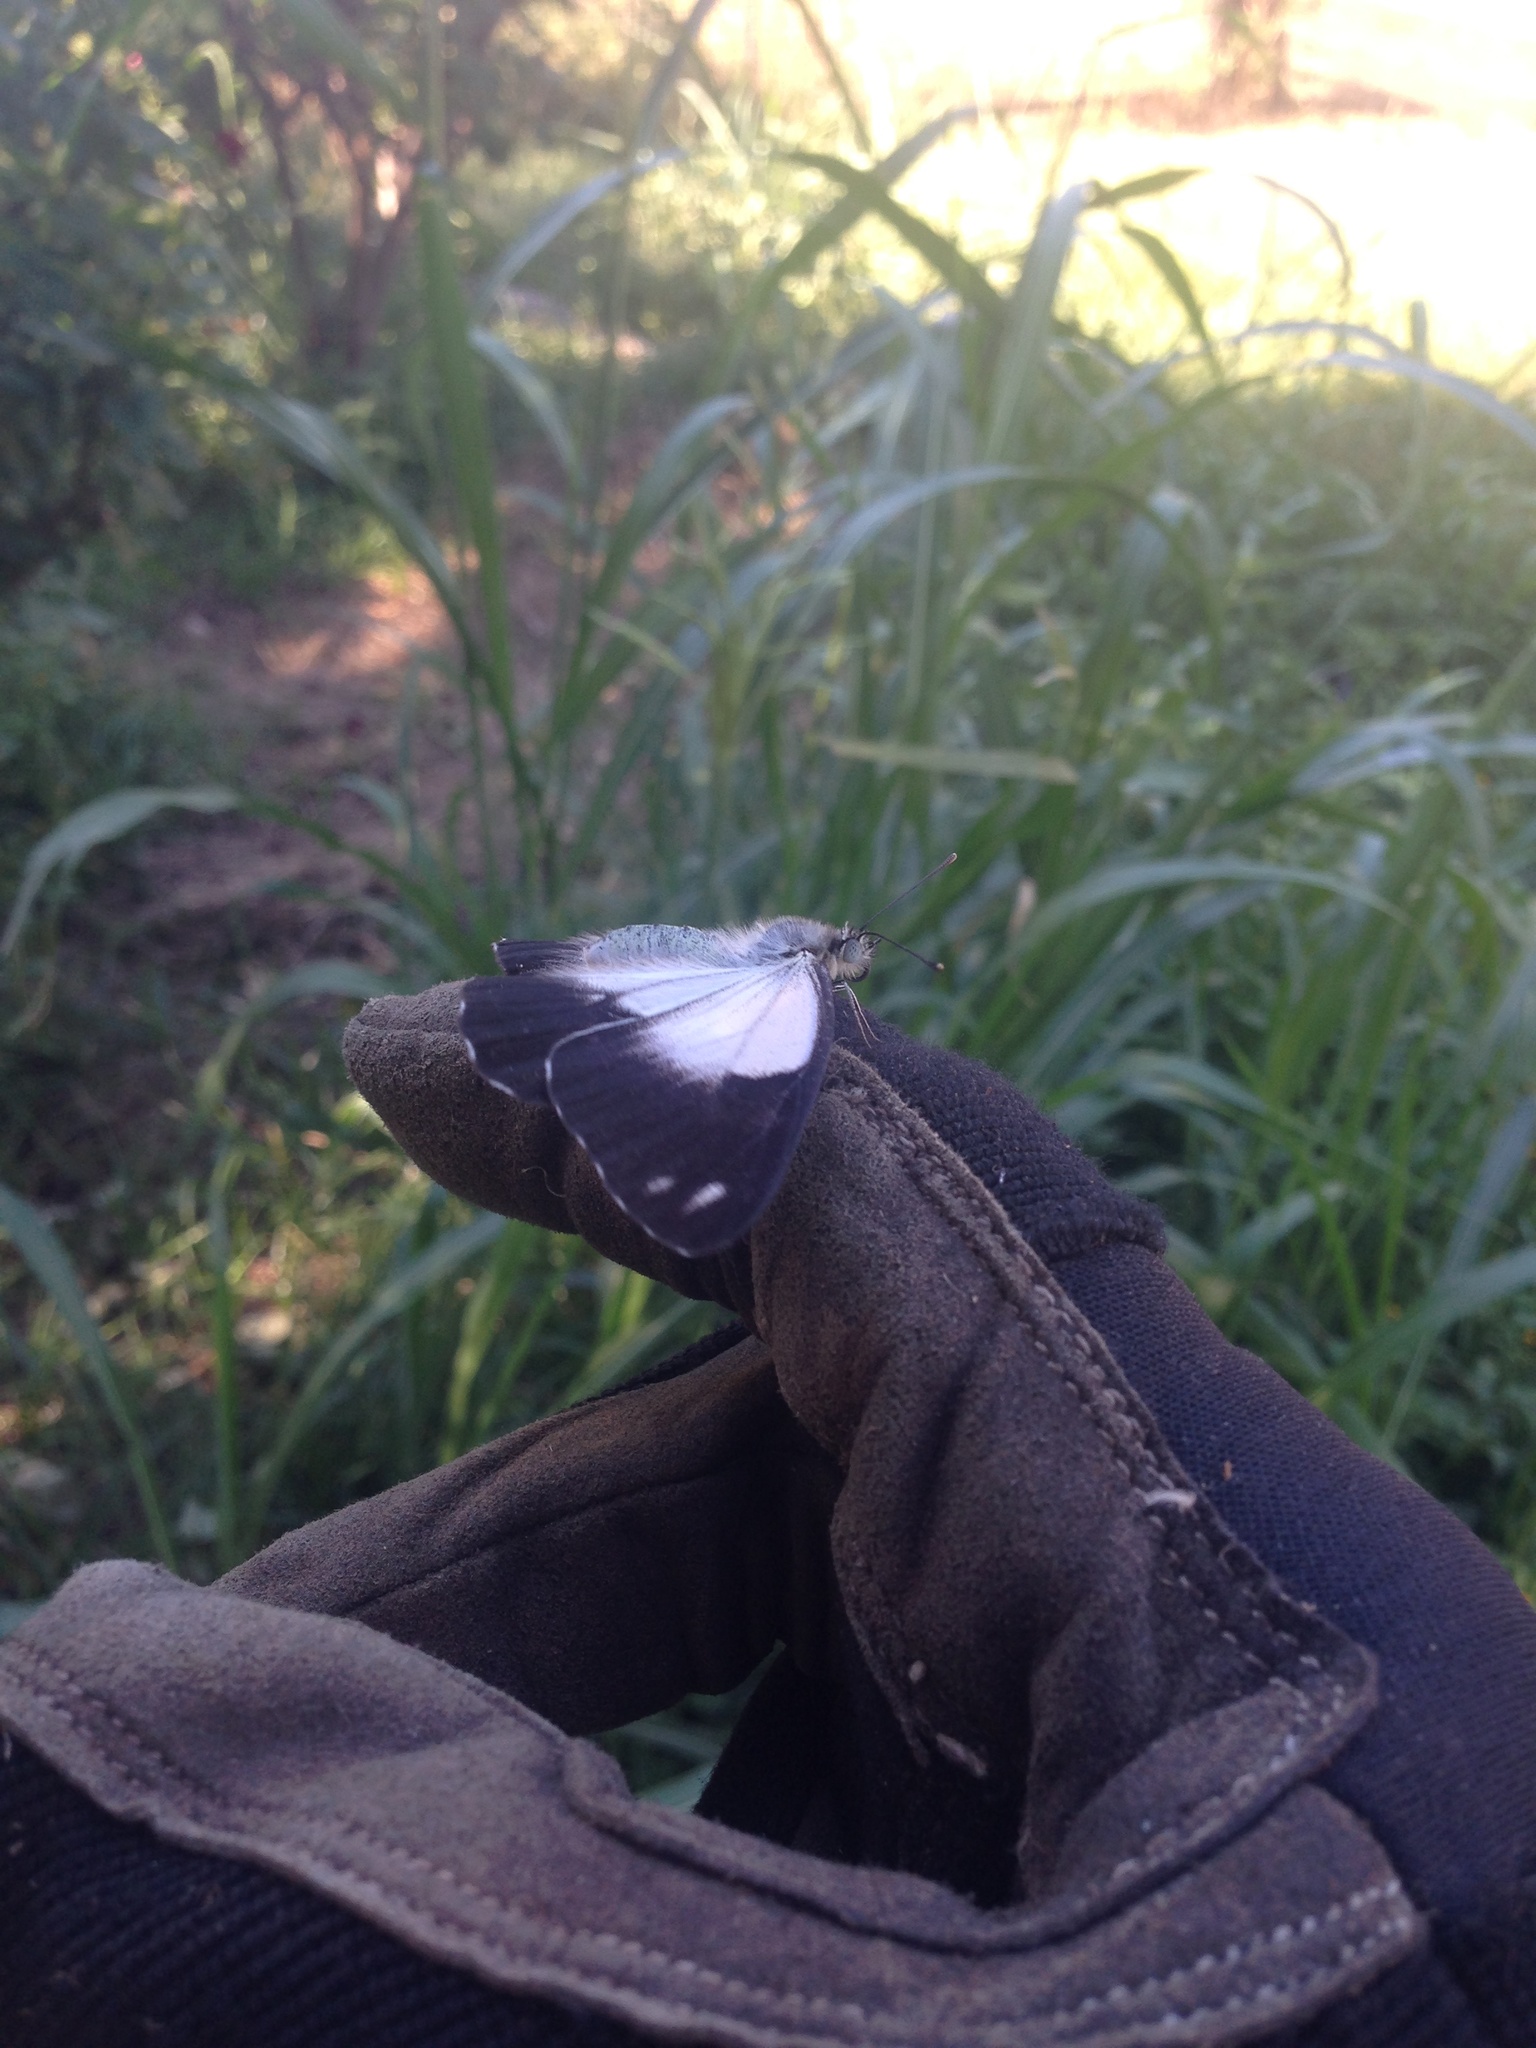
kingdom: Animalia
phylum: Arthropoda
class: Insecta
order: Lepidoptera
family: Pieridae
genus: Belenois
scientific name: Belenois java
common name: Caper white
